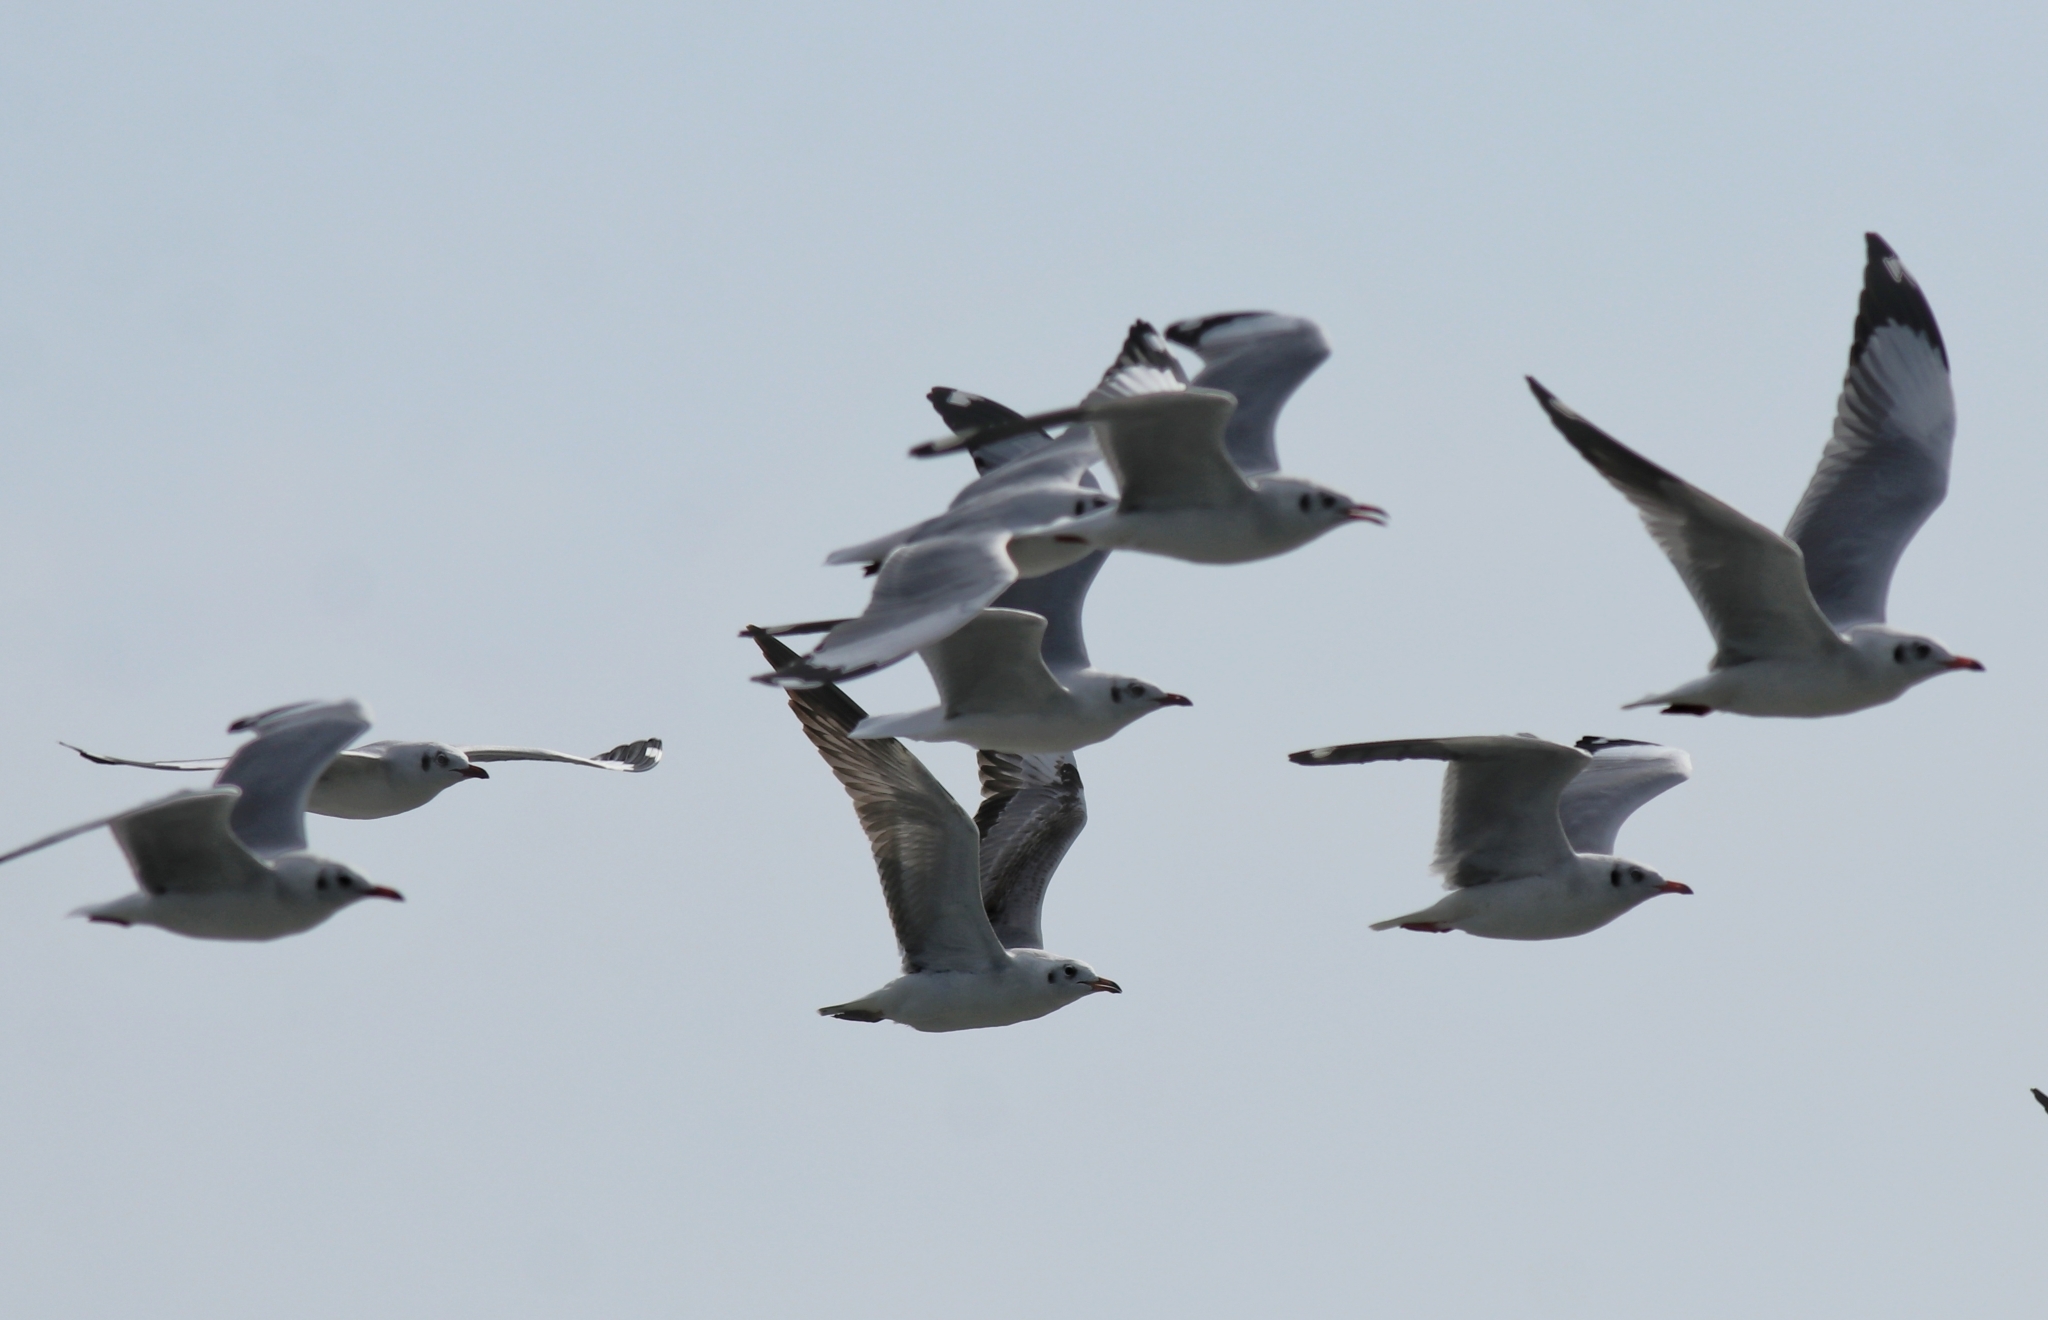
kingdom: Animalia
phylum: Chordata
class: Aves
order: Charadriiformes
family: Laridae
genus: Chroicocephalus
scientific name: Chroicocephalus brunnicephalus
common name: Brown-headed gull
